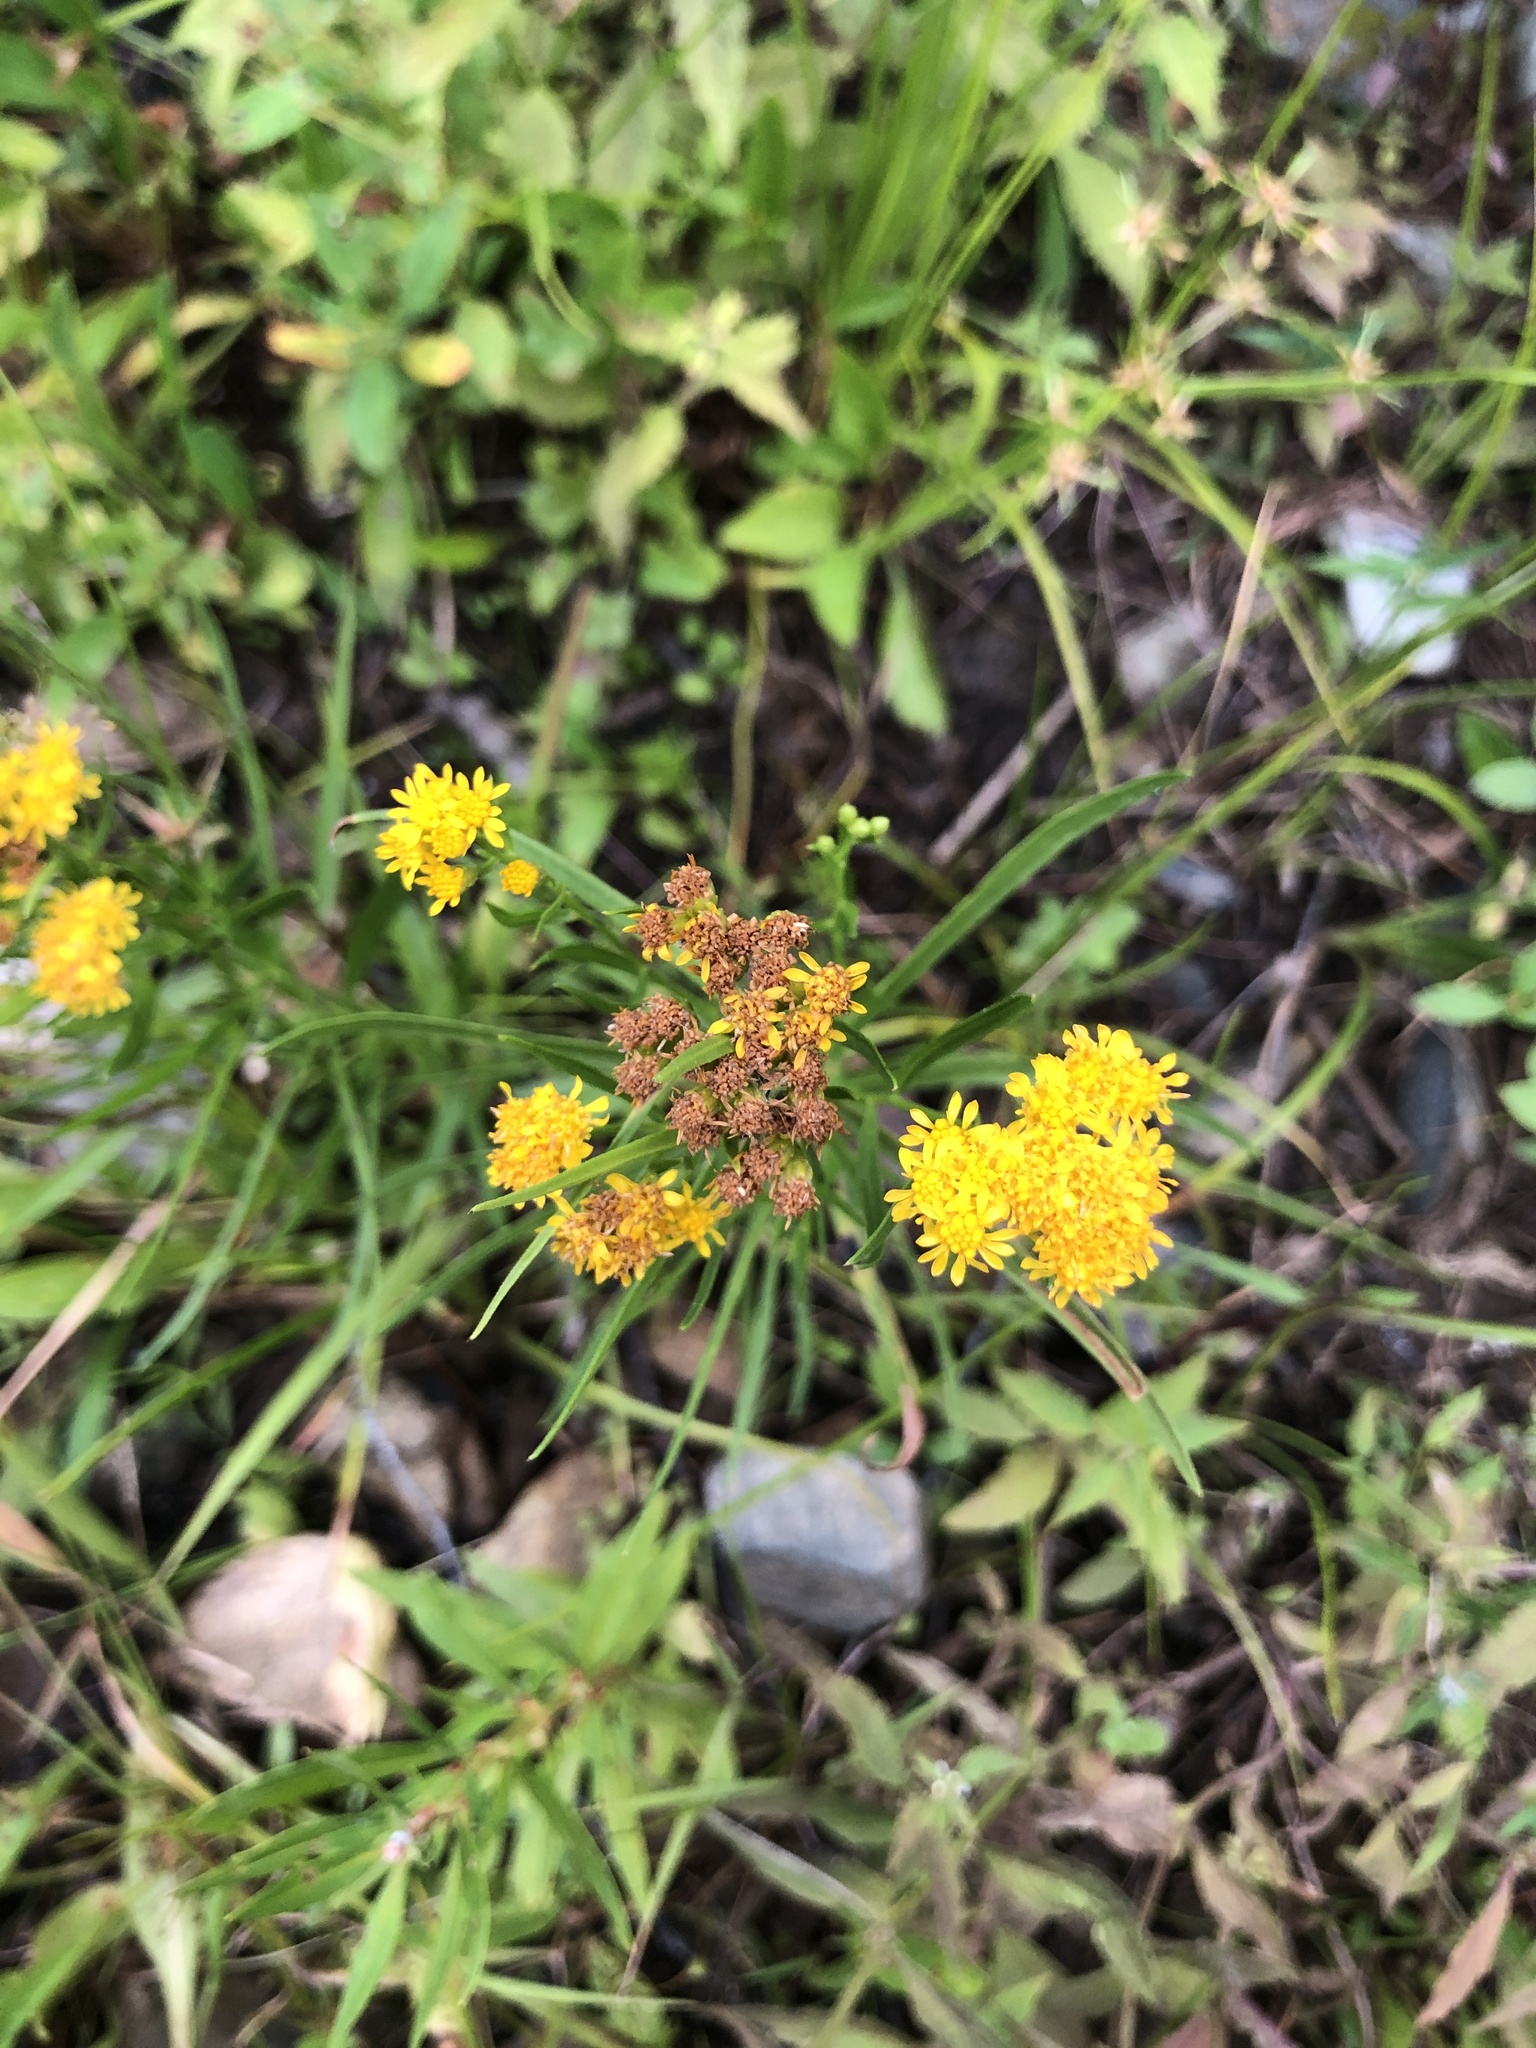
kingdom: Plantae
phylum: Tracheophyta
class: Magnoliopsida
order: Asterales
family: Asteraceae
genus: Euthamia
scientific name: Euthamia caroliniana
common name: Coastal plain goldentop
